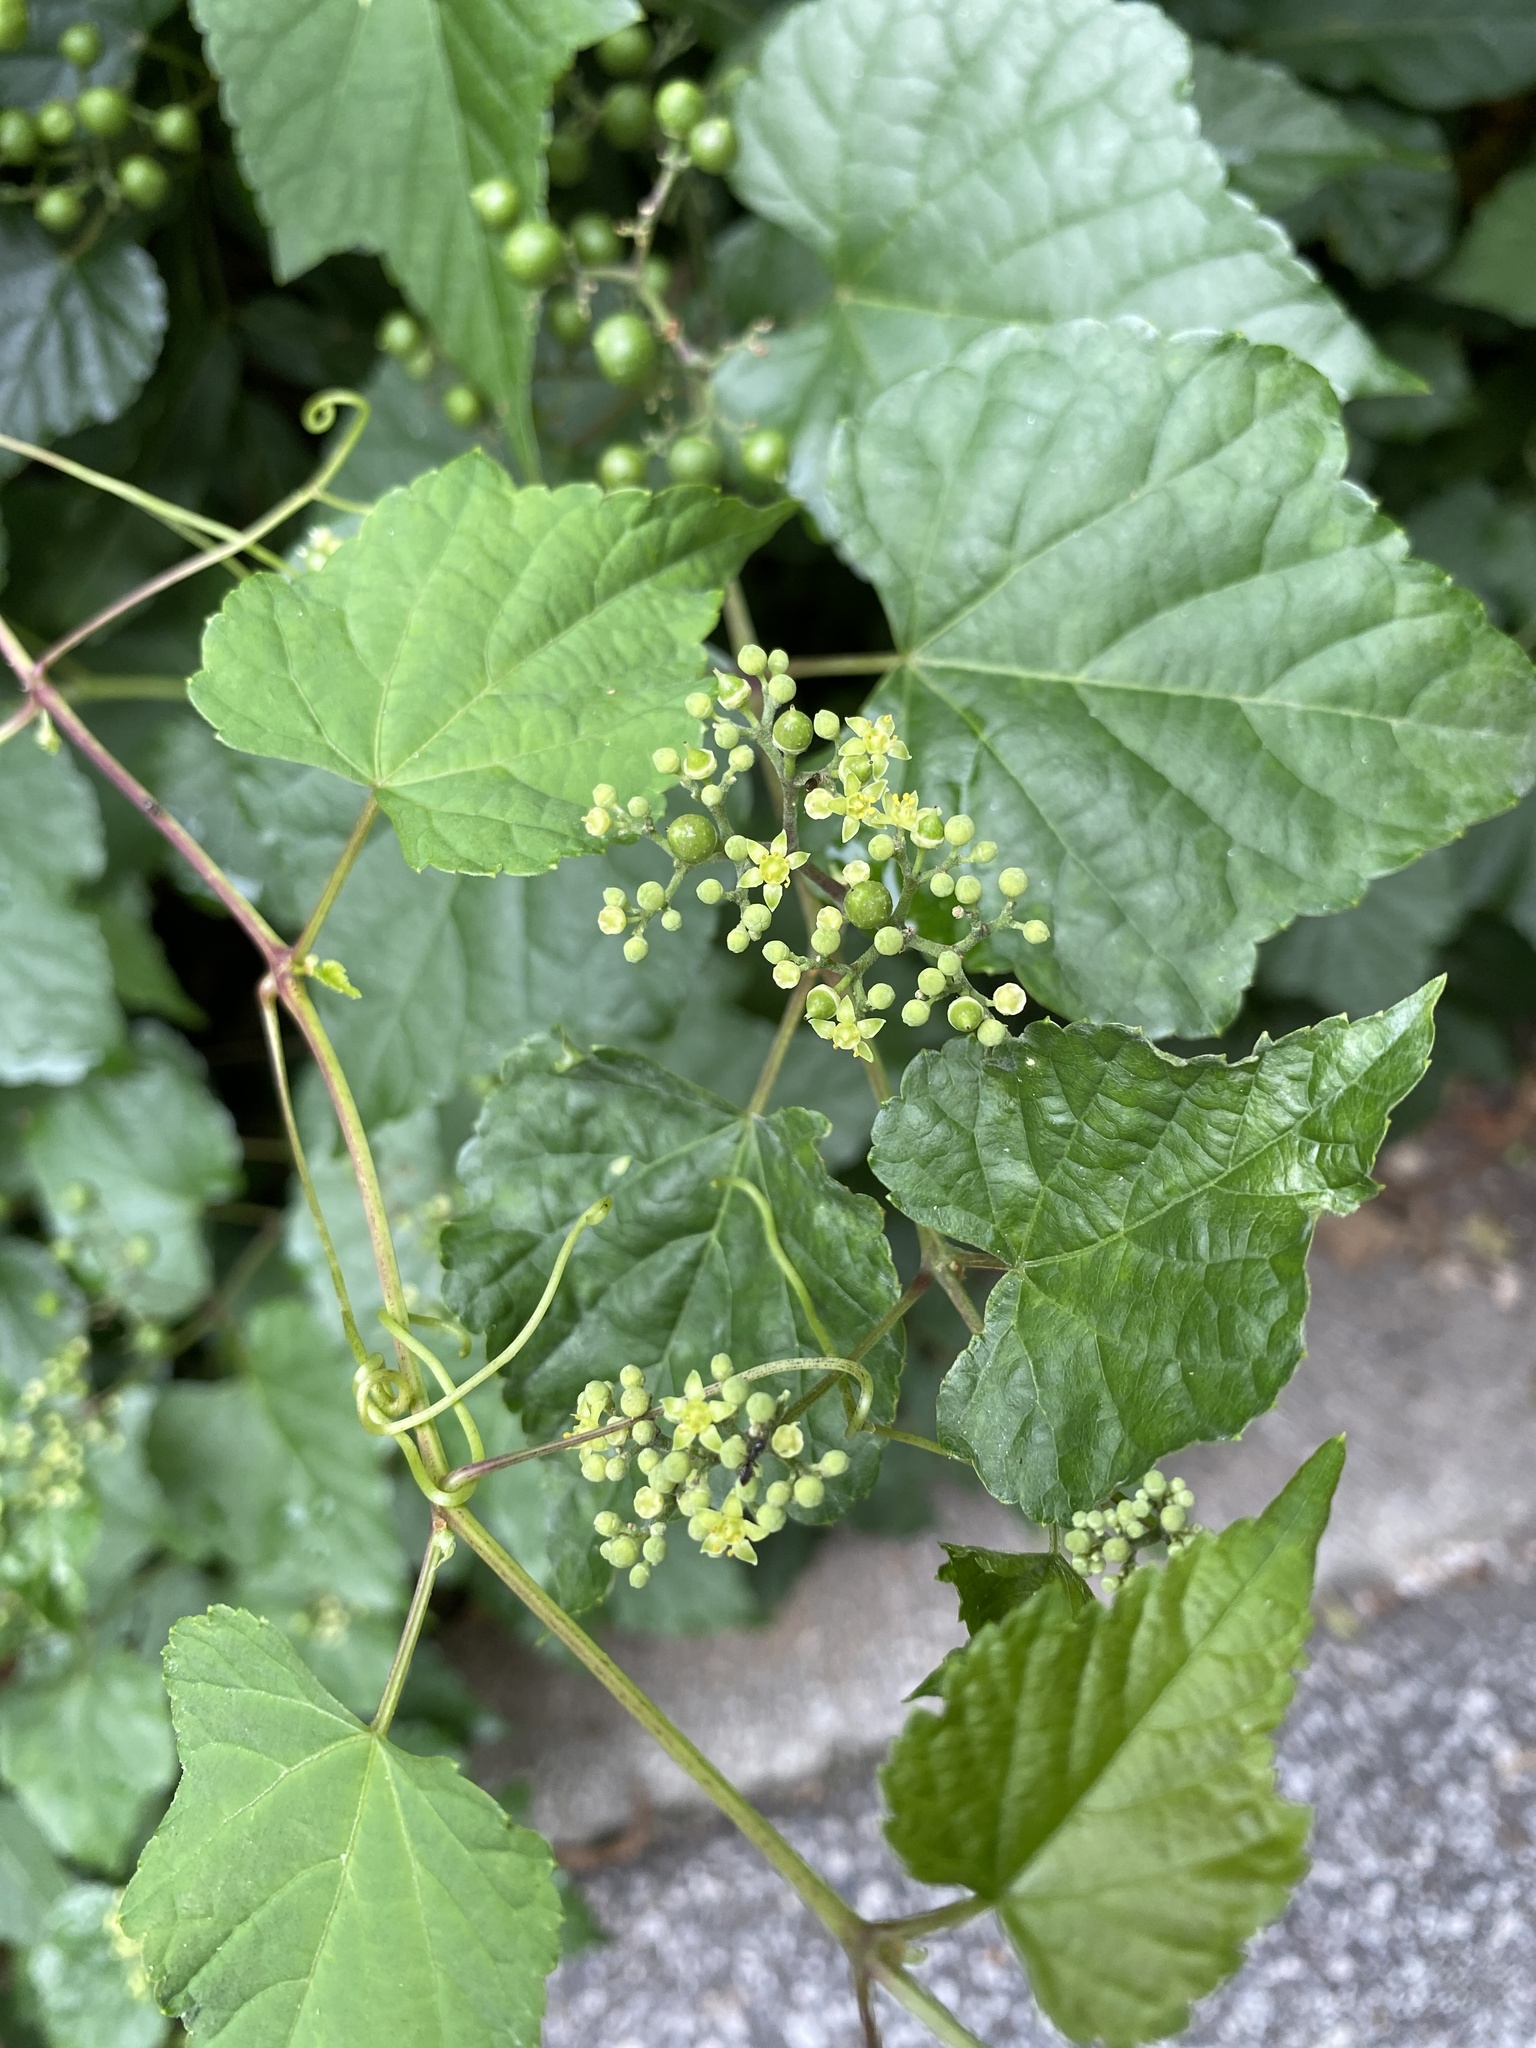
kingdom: Plantae
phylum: Tracheophyta
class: Magnoliopsida
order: Vitales
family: Vitaceae
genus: Ampelopsis
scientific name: Ampelopsis glandulosa
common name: Amur peppervine
